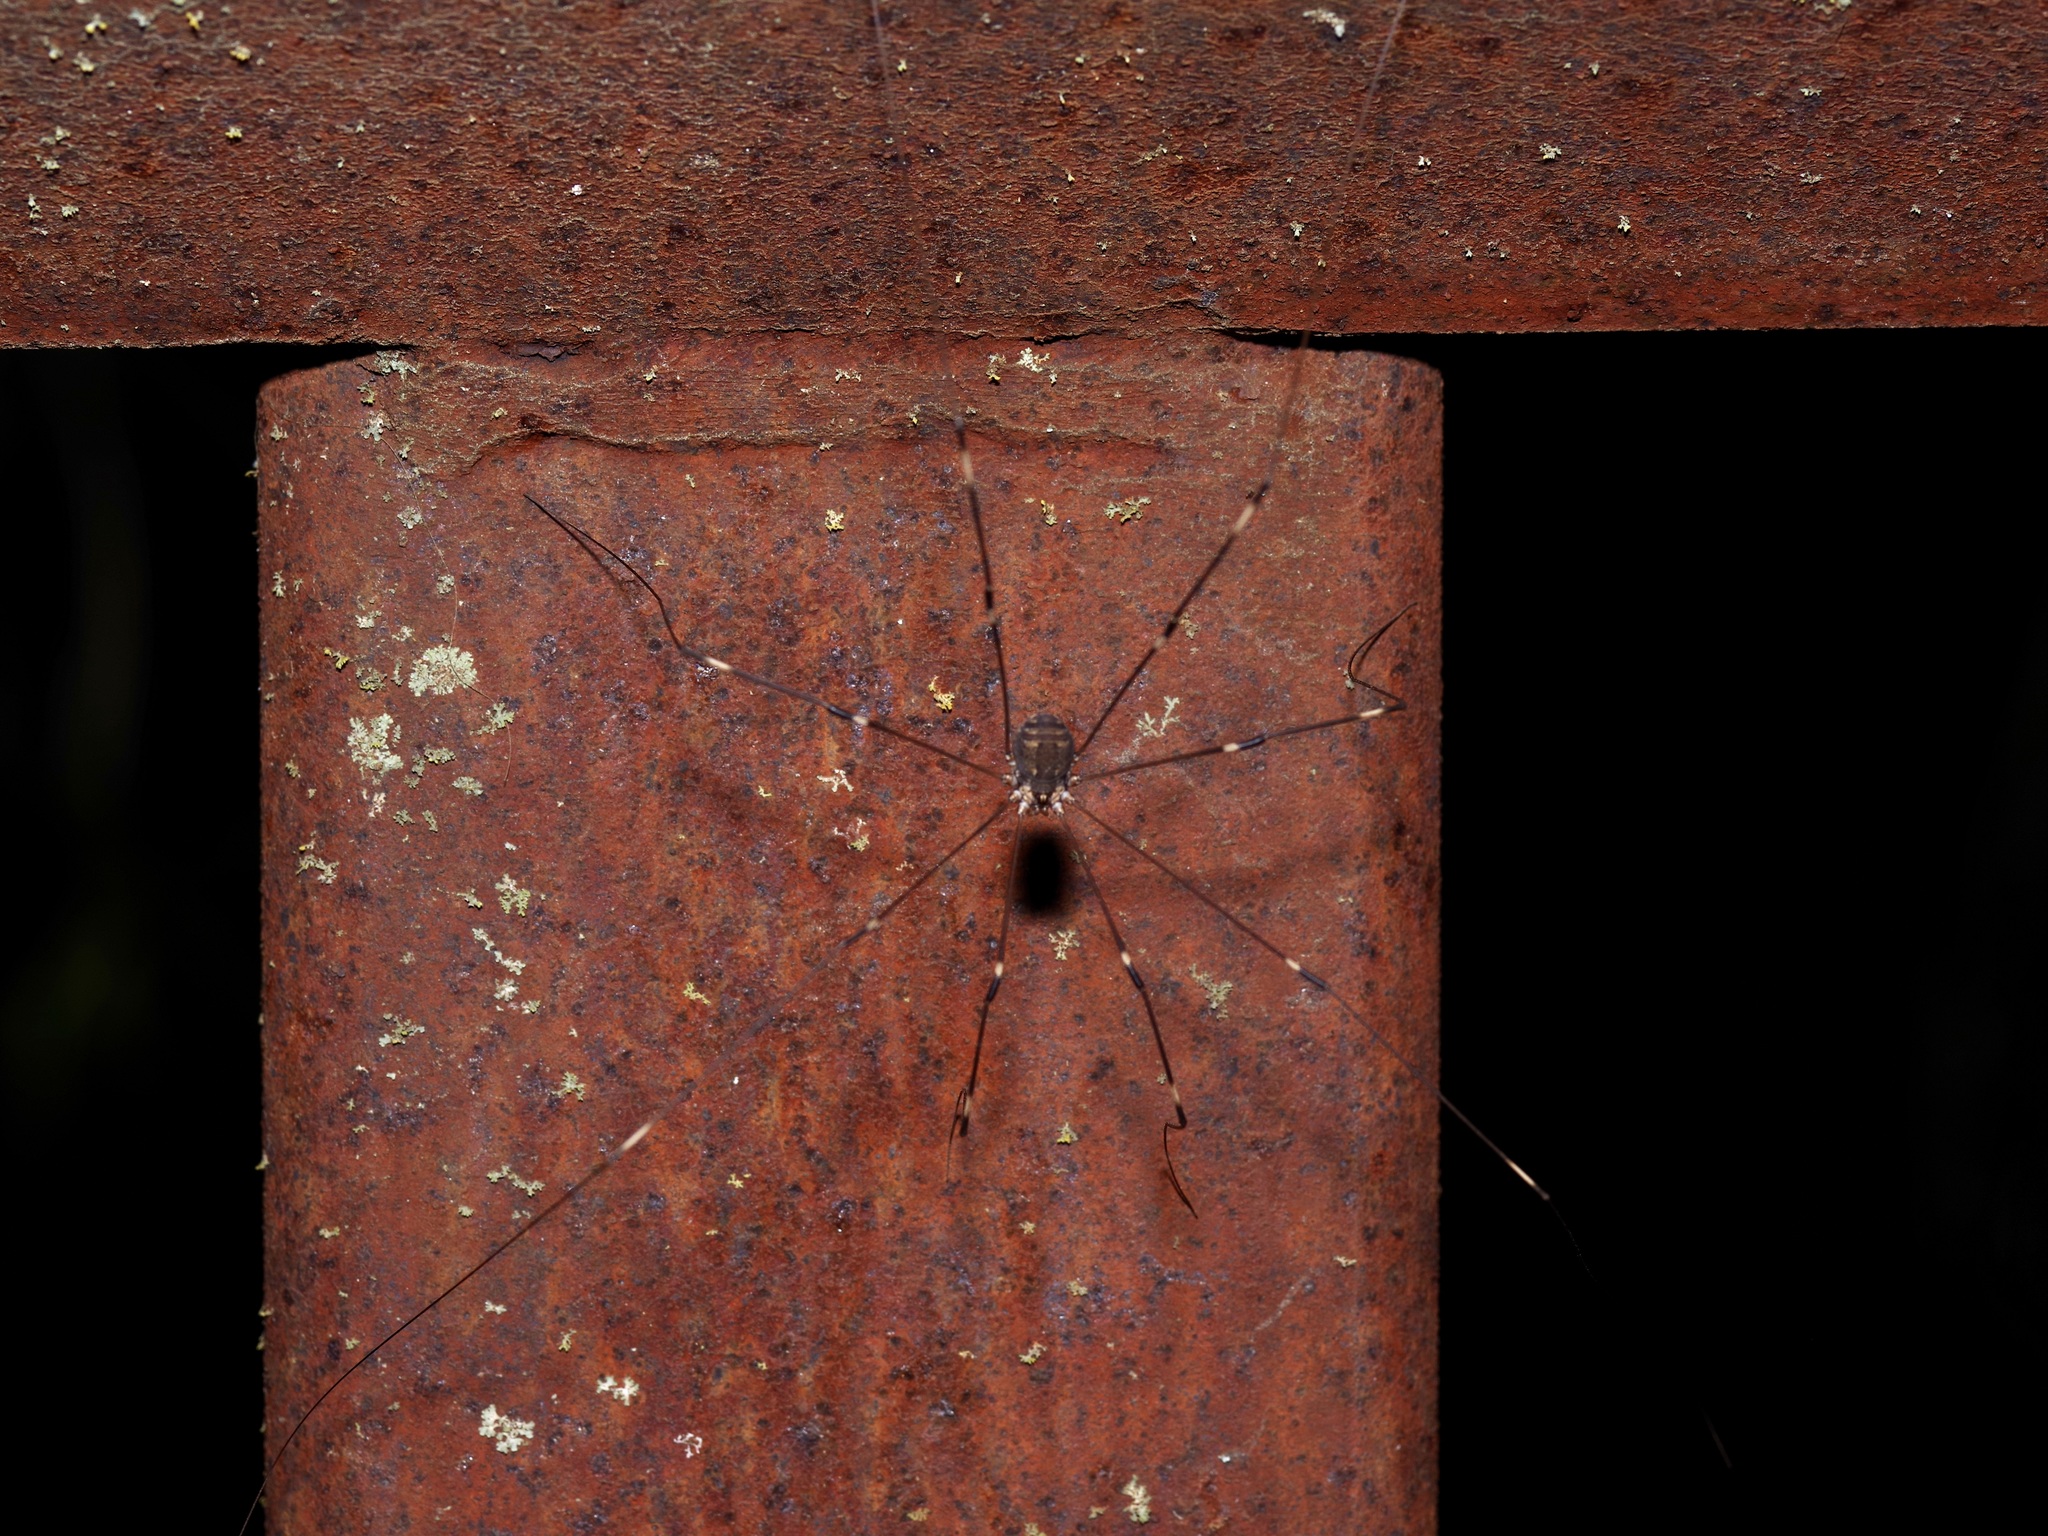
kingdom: Animalia
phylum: Arthropoda
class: Arachnida
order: Opiliones
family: Sclerosomatidae
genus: Leiobunum
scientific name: Leiobunum townsendi
